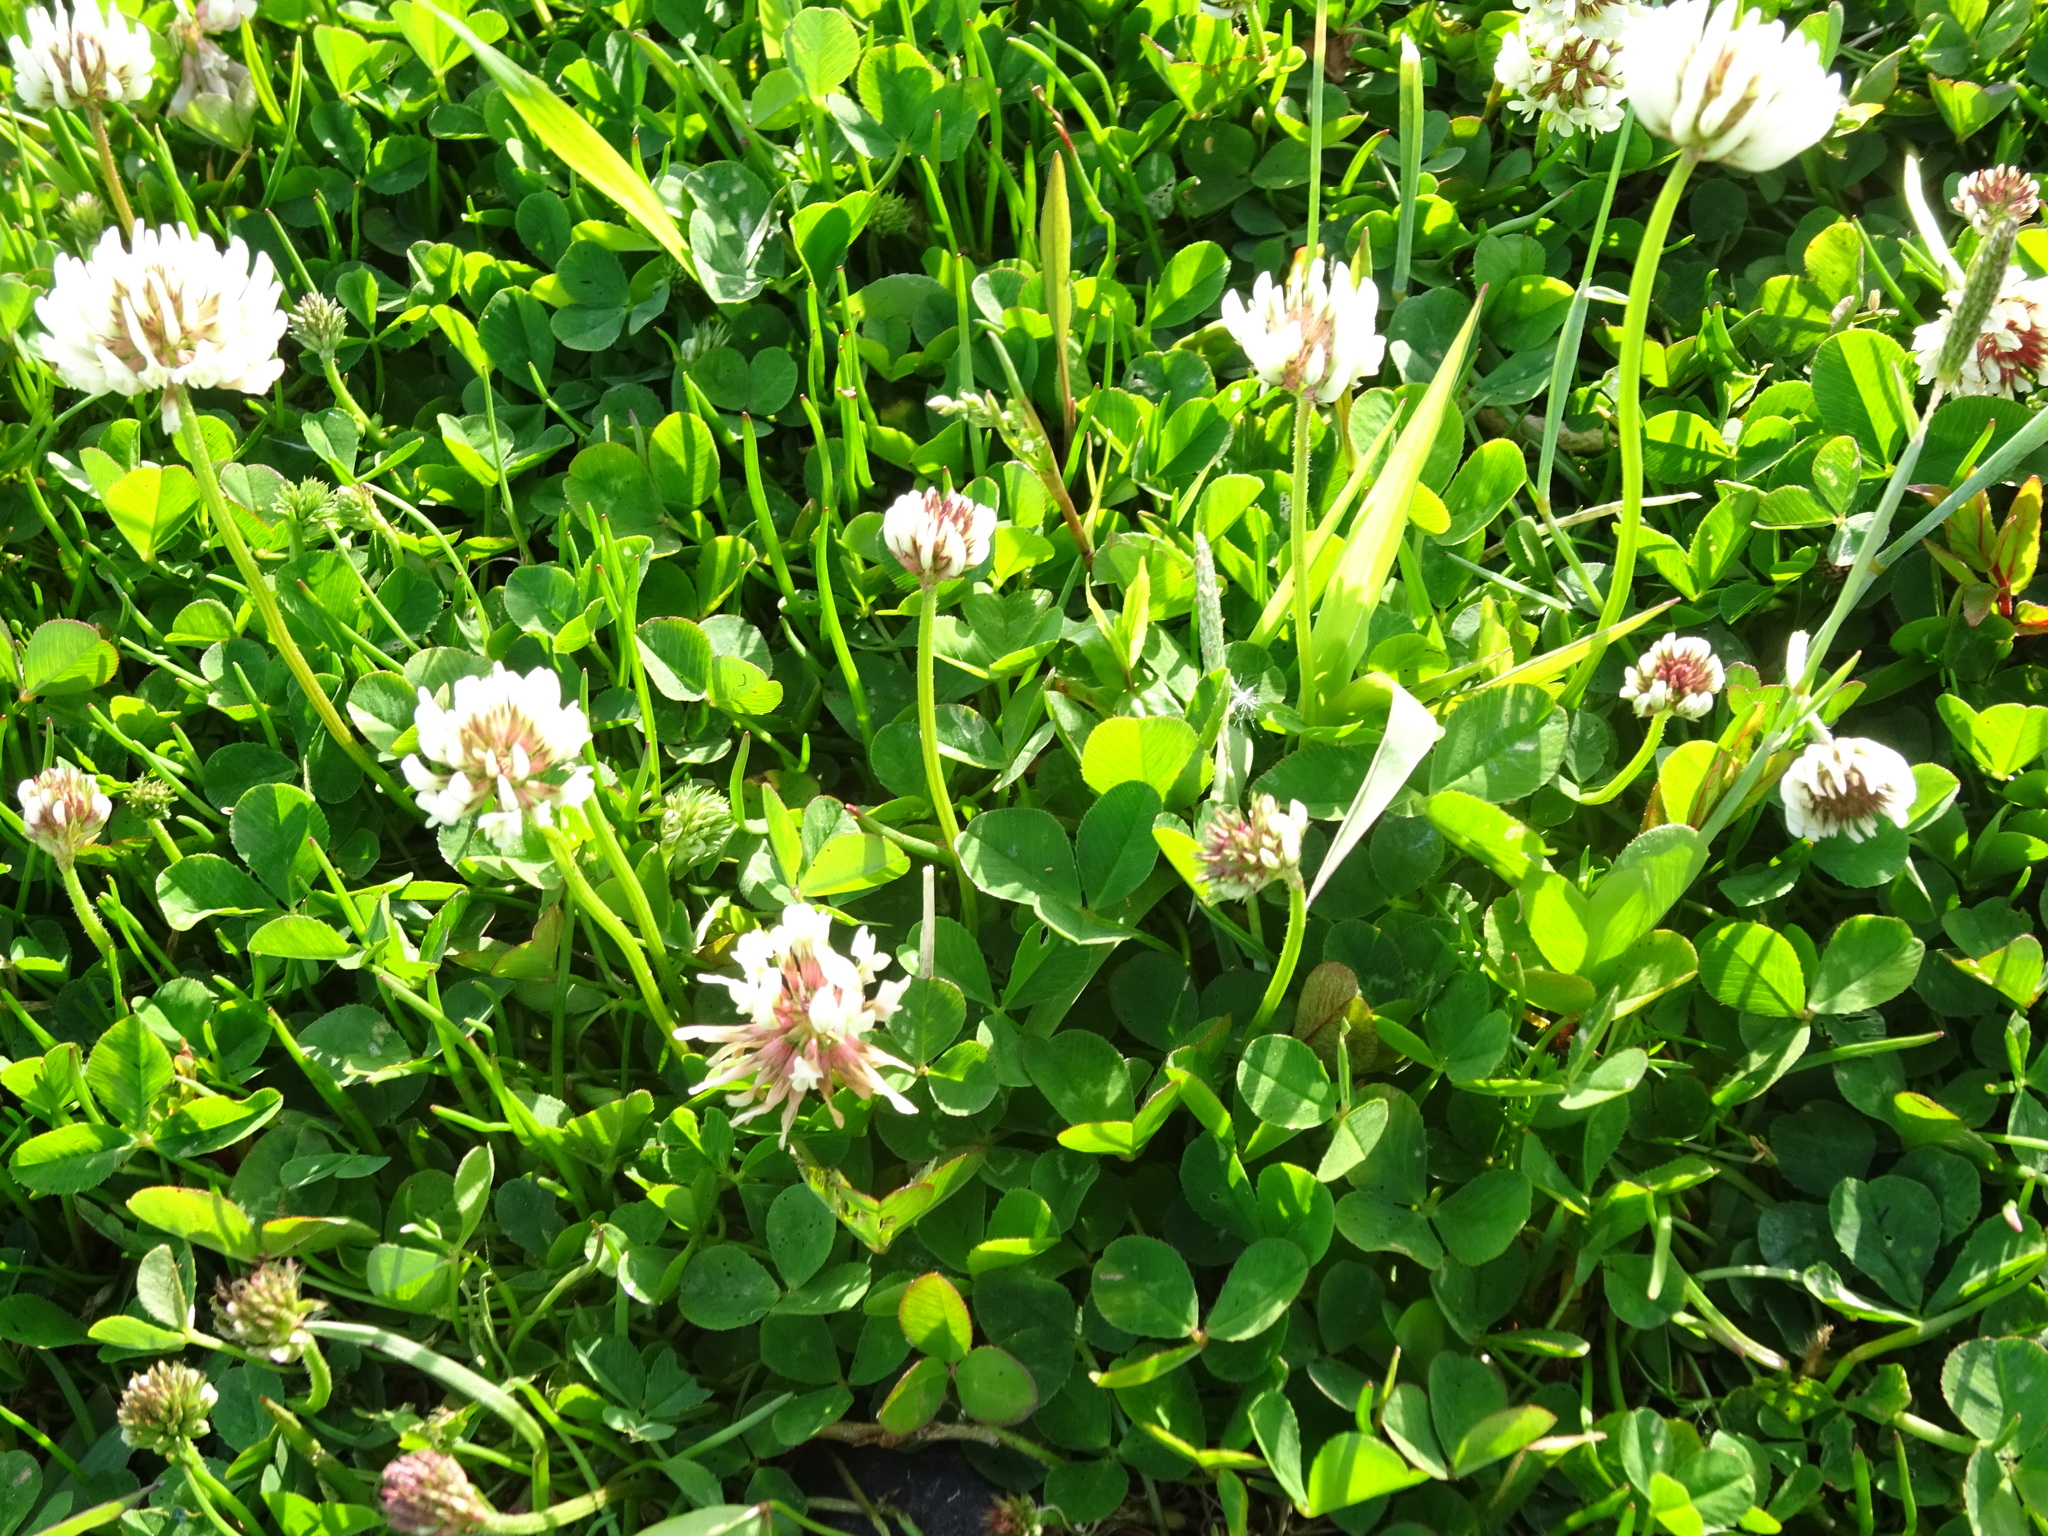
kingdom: Plantae
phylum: Tracheophyta
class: Magnoliopsida
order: Fabales
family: Fabaceae
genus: Trifolium
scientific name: Trifolium repens
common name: White clover
